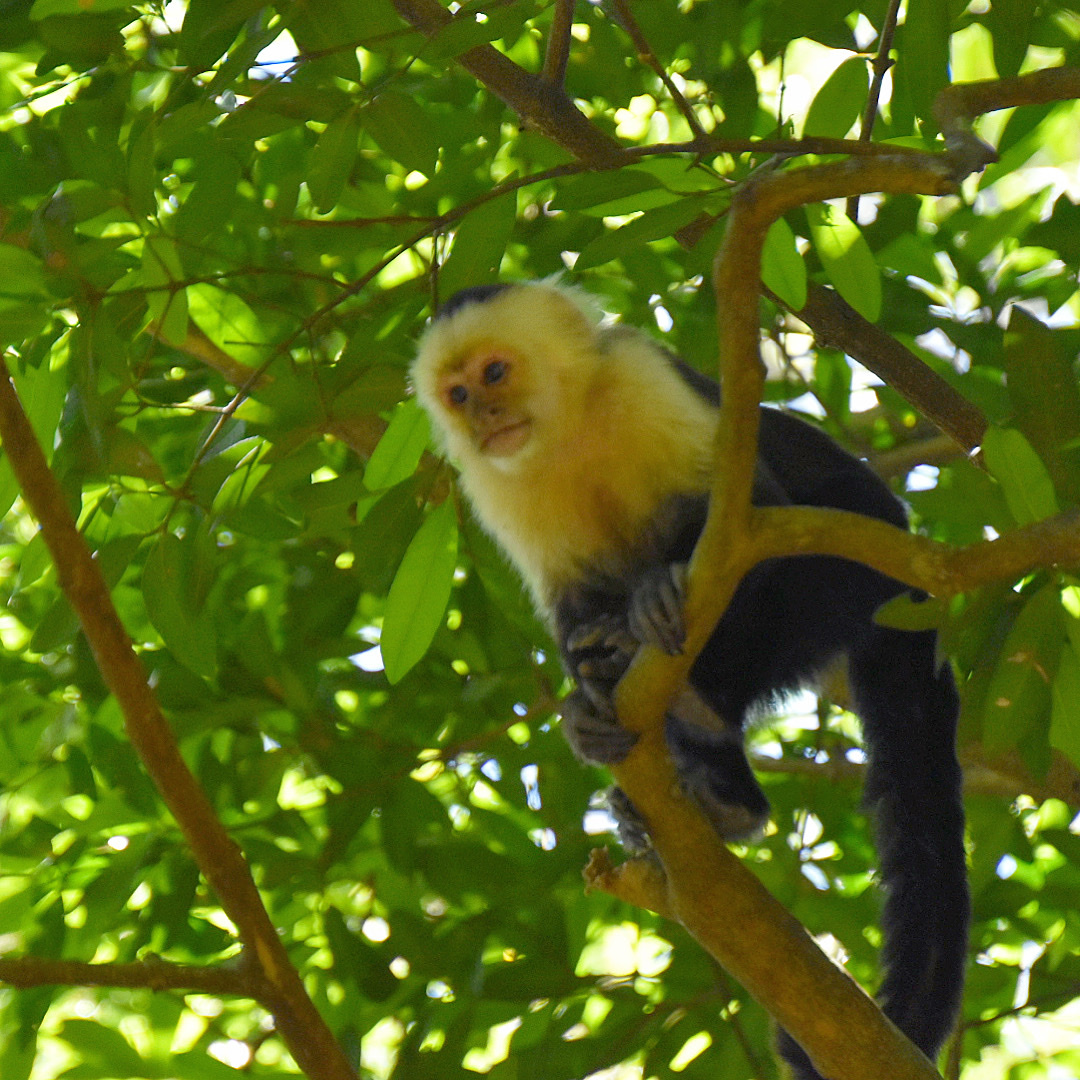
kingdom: Animalia
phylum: Chordata
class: Mammalia
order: Primates
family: Cebidae
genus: Cebus
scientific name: Cebus imitator
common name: Panamanian white-faced capuchin
